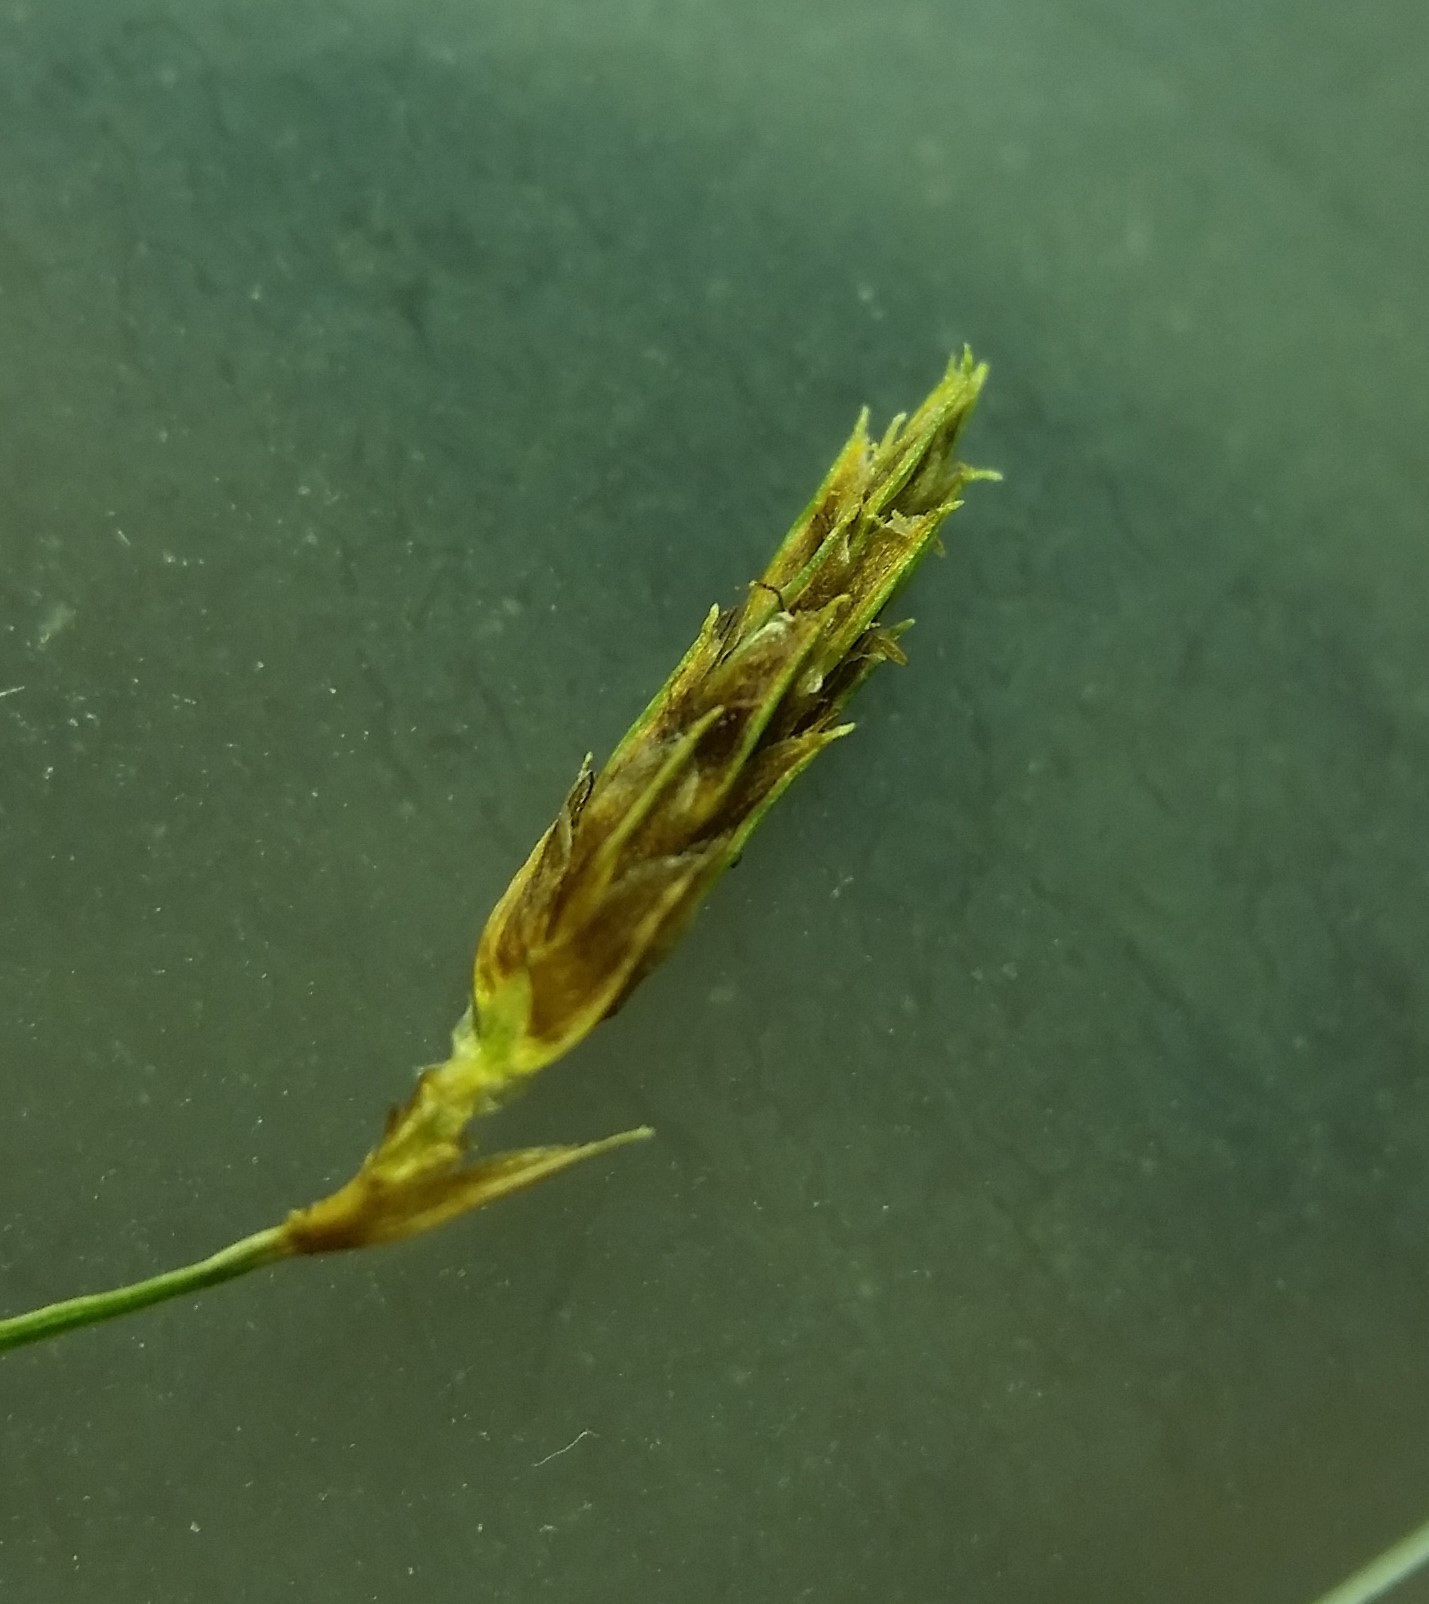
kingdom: Plantae
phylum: Tracheophyta
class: Liliopsida
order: Poales
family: Cyperaceae
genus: Fimbristylis
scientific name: Fimbristylis autumnalis
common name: Slender fimbristylis
